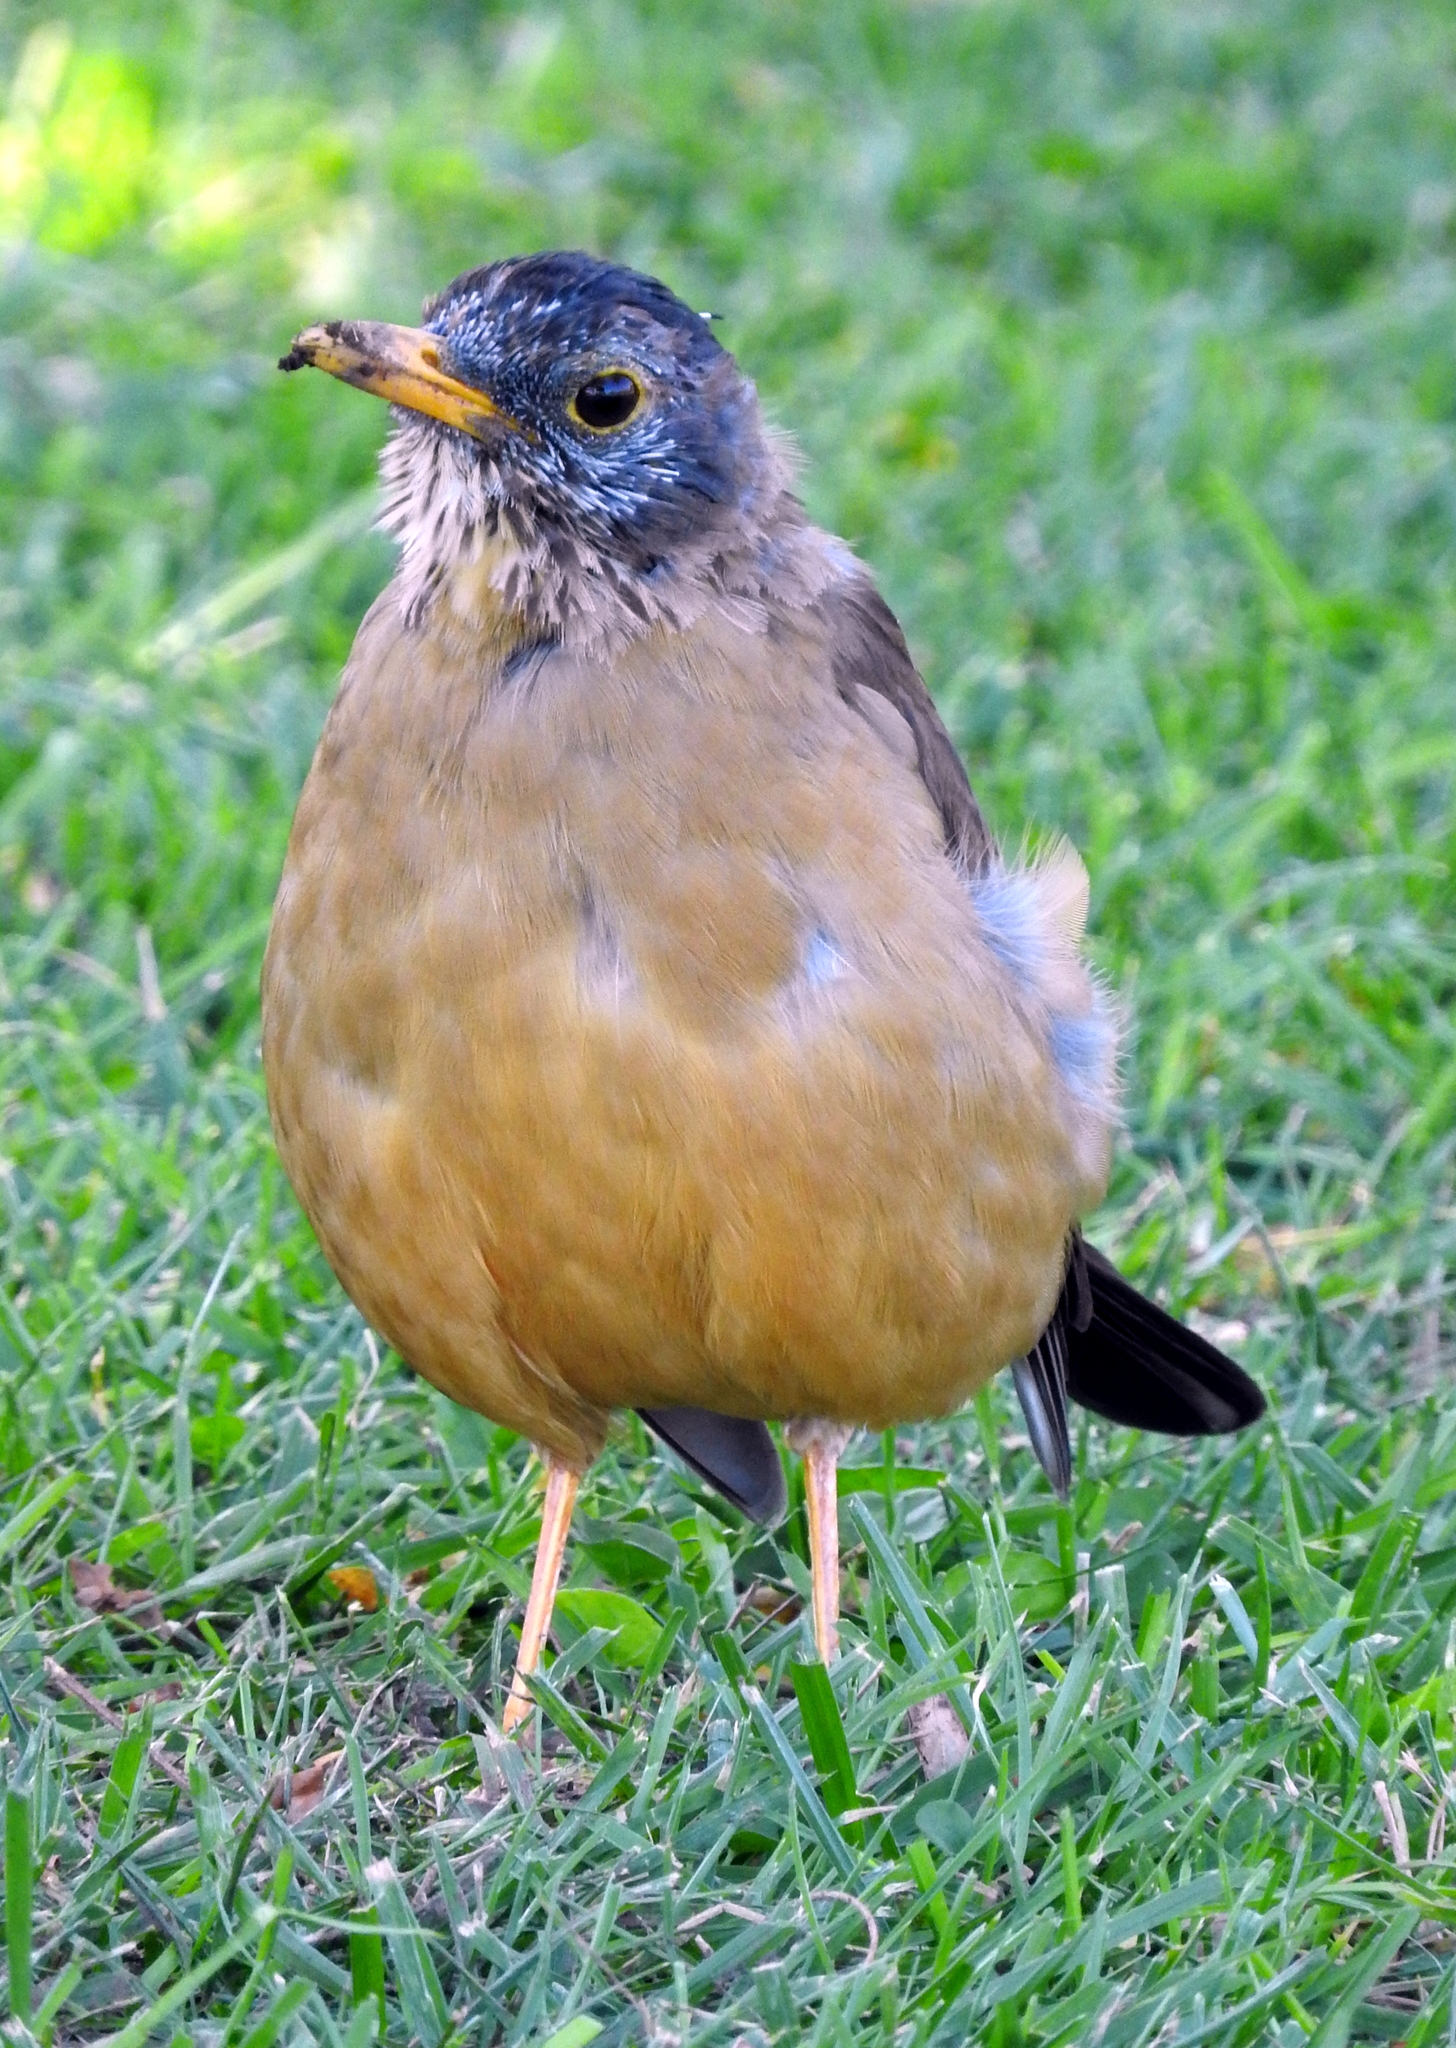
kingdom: Animalia
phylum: Chordata
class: Aves
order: Passeriformes
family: Turdidae
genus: Turdus
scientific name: Turdus falcklandii
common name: Austral thrush
